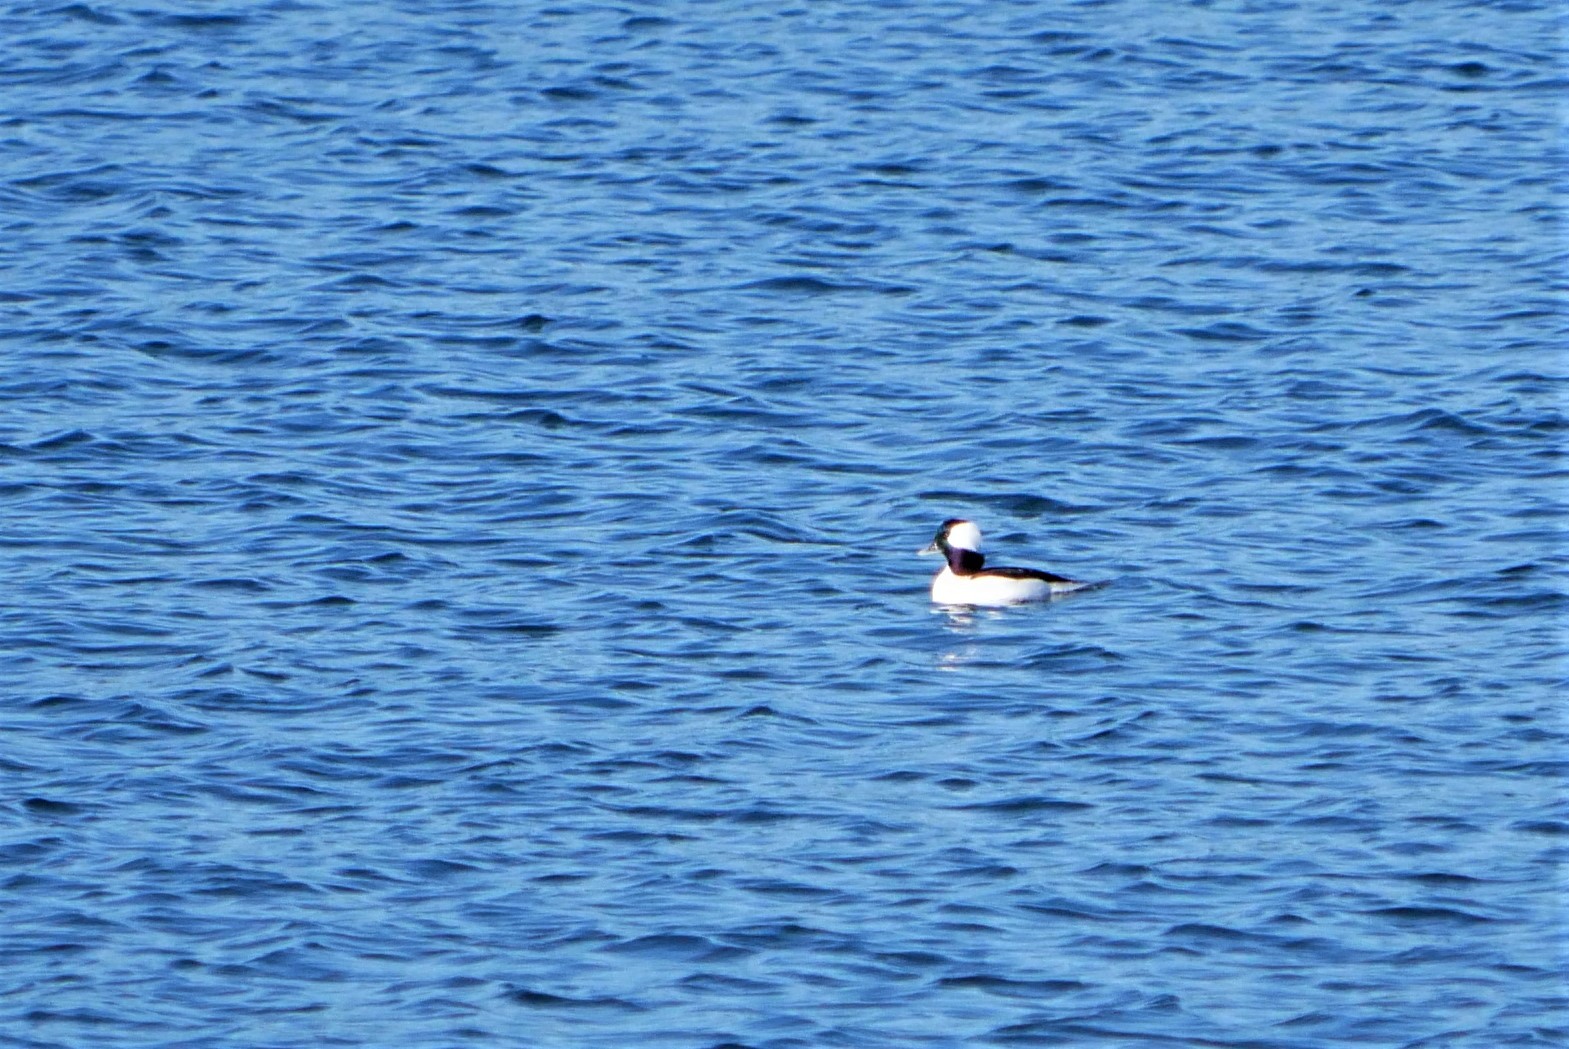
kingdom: Animalia
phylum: Chordata
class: Aves
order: Anseriformes
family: Anatidae
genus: Bucephala
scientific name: Bucephala albeola
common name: Bufflehead
